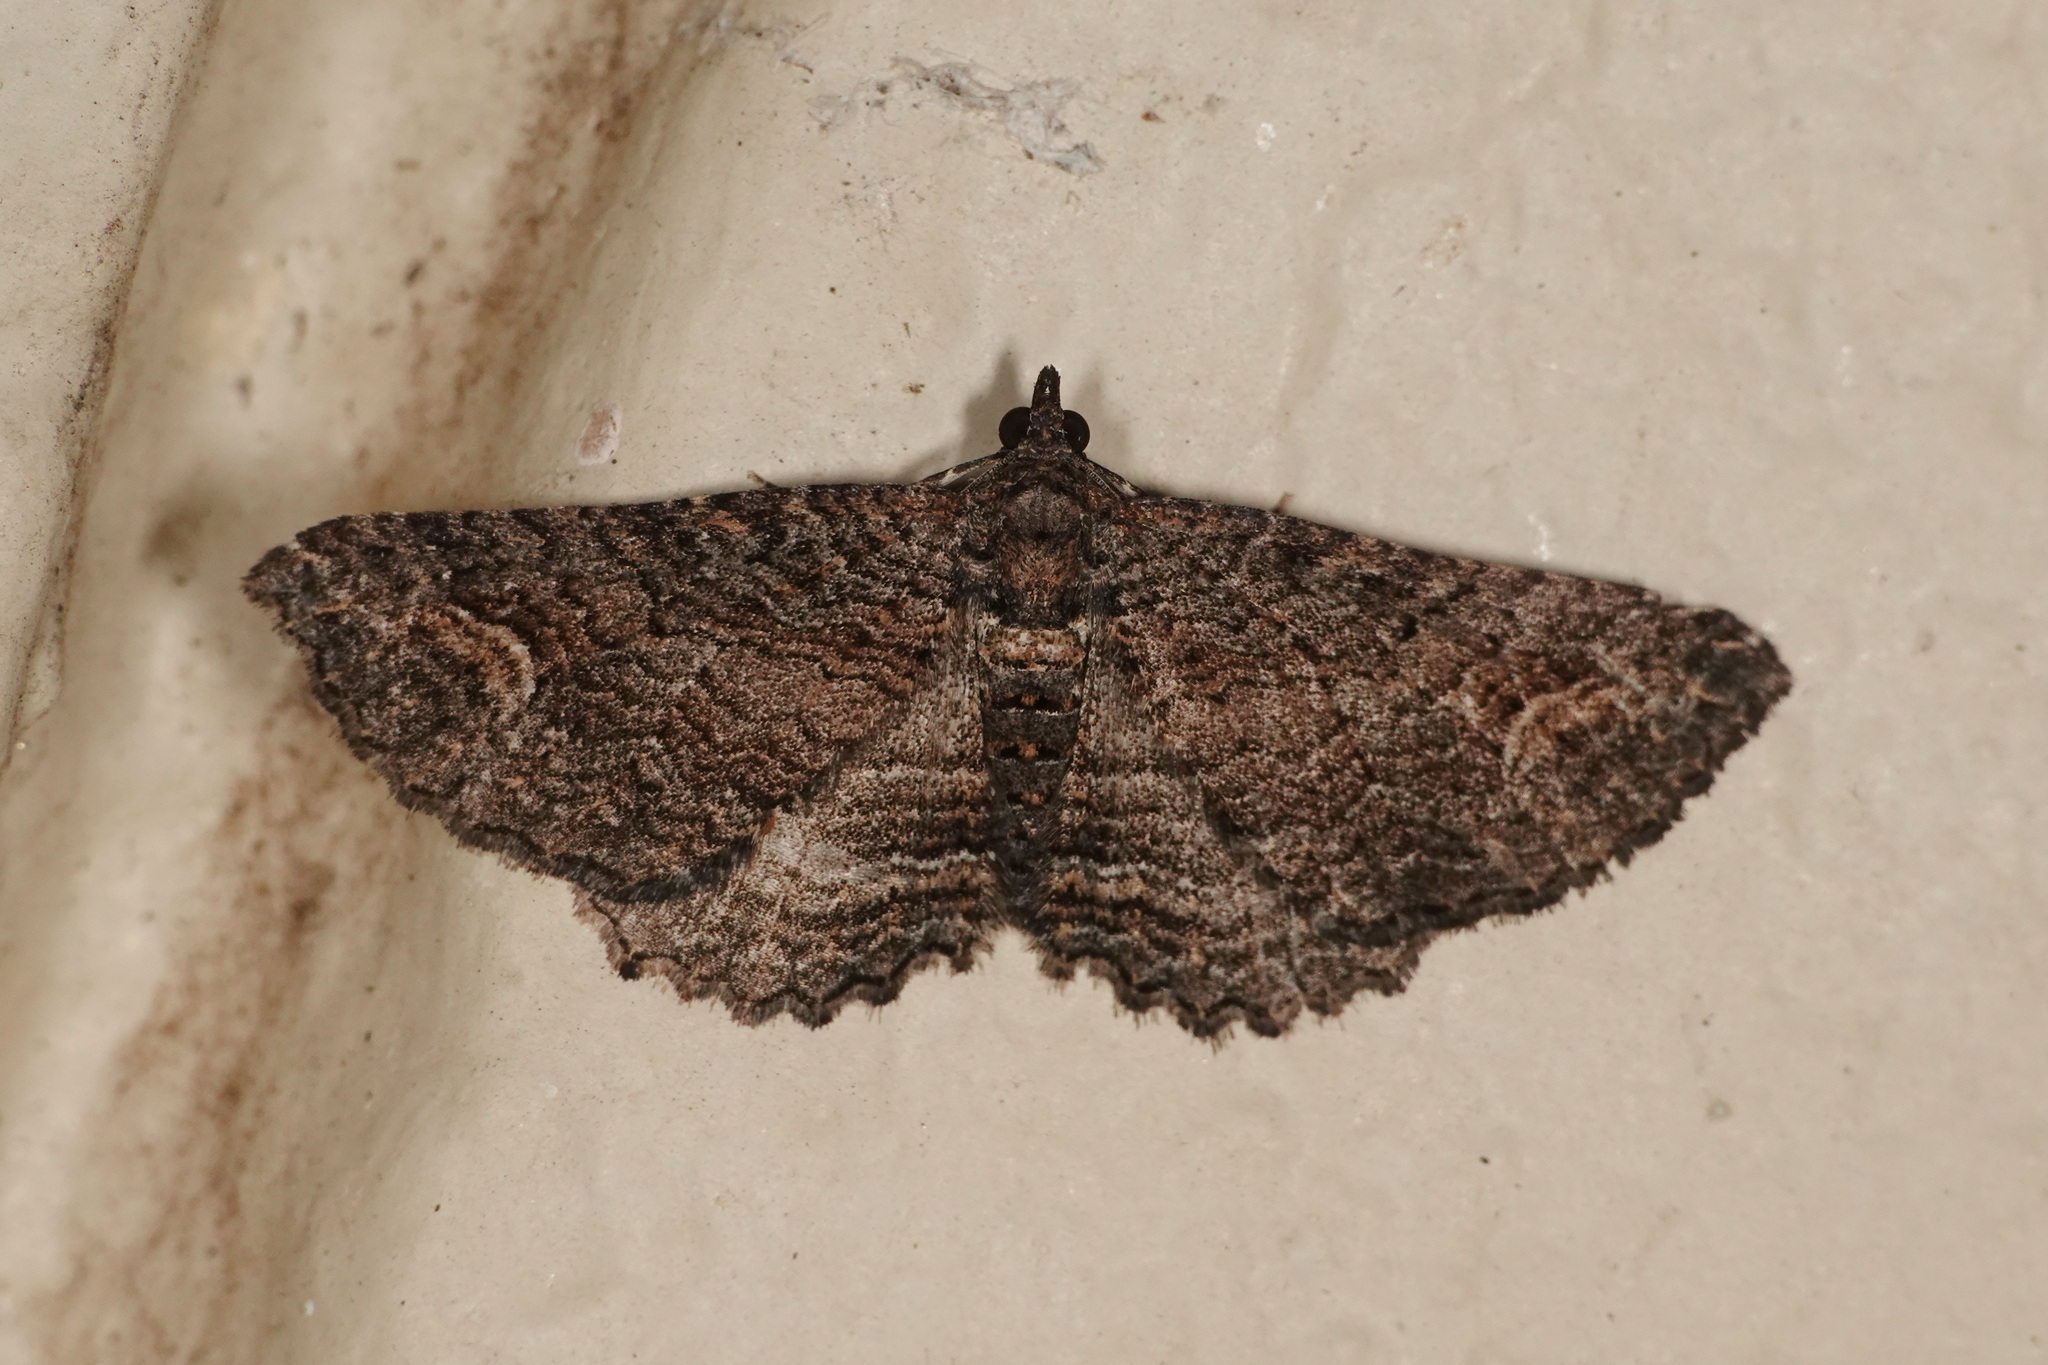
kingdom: Animalia
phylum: Arthropoda
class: Insecta
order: Lepidoptera
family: Geometridae
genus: Eupithecia
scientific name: Eupithecia Eucymatoge scotodes
